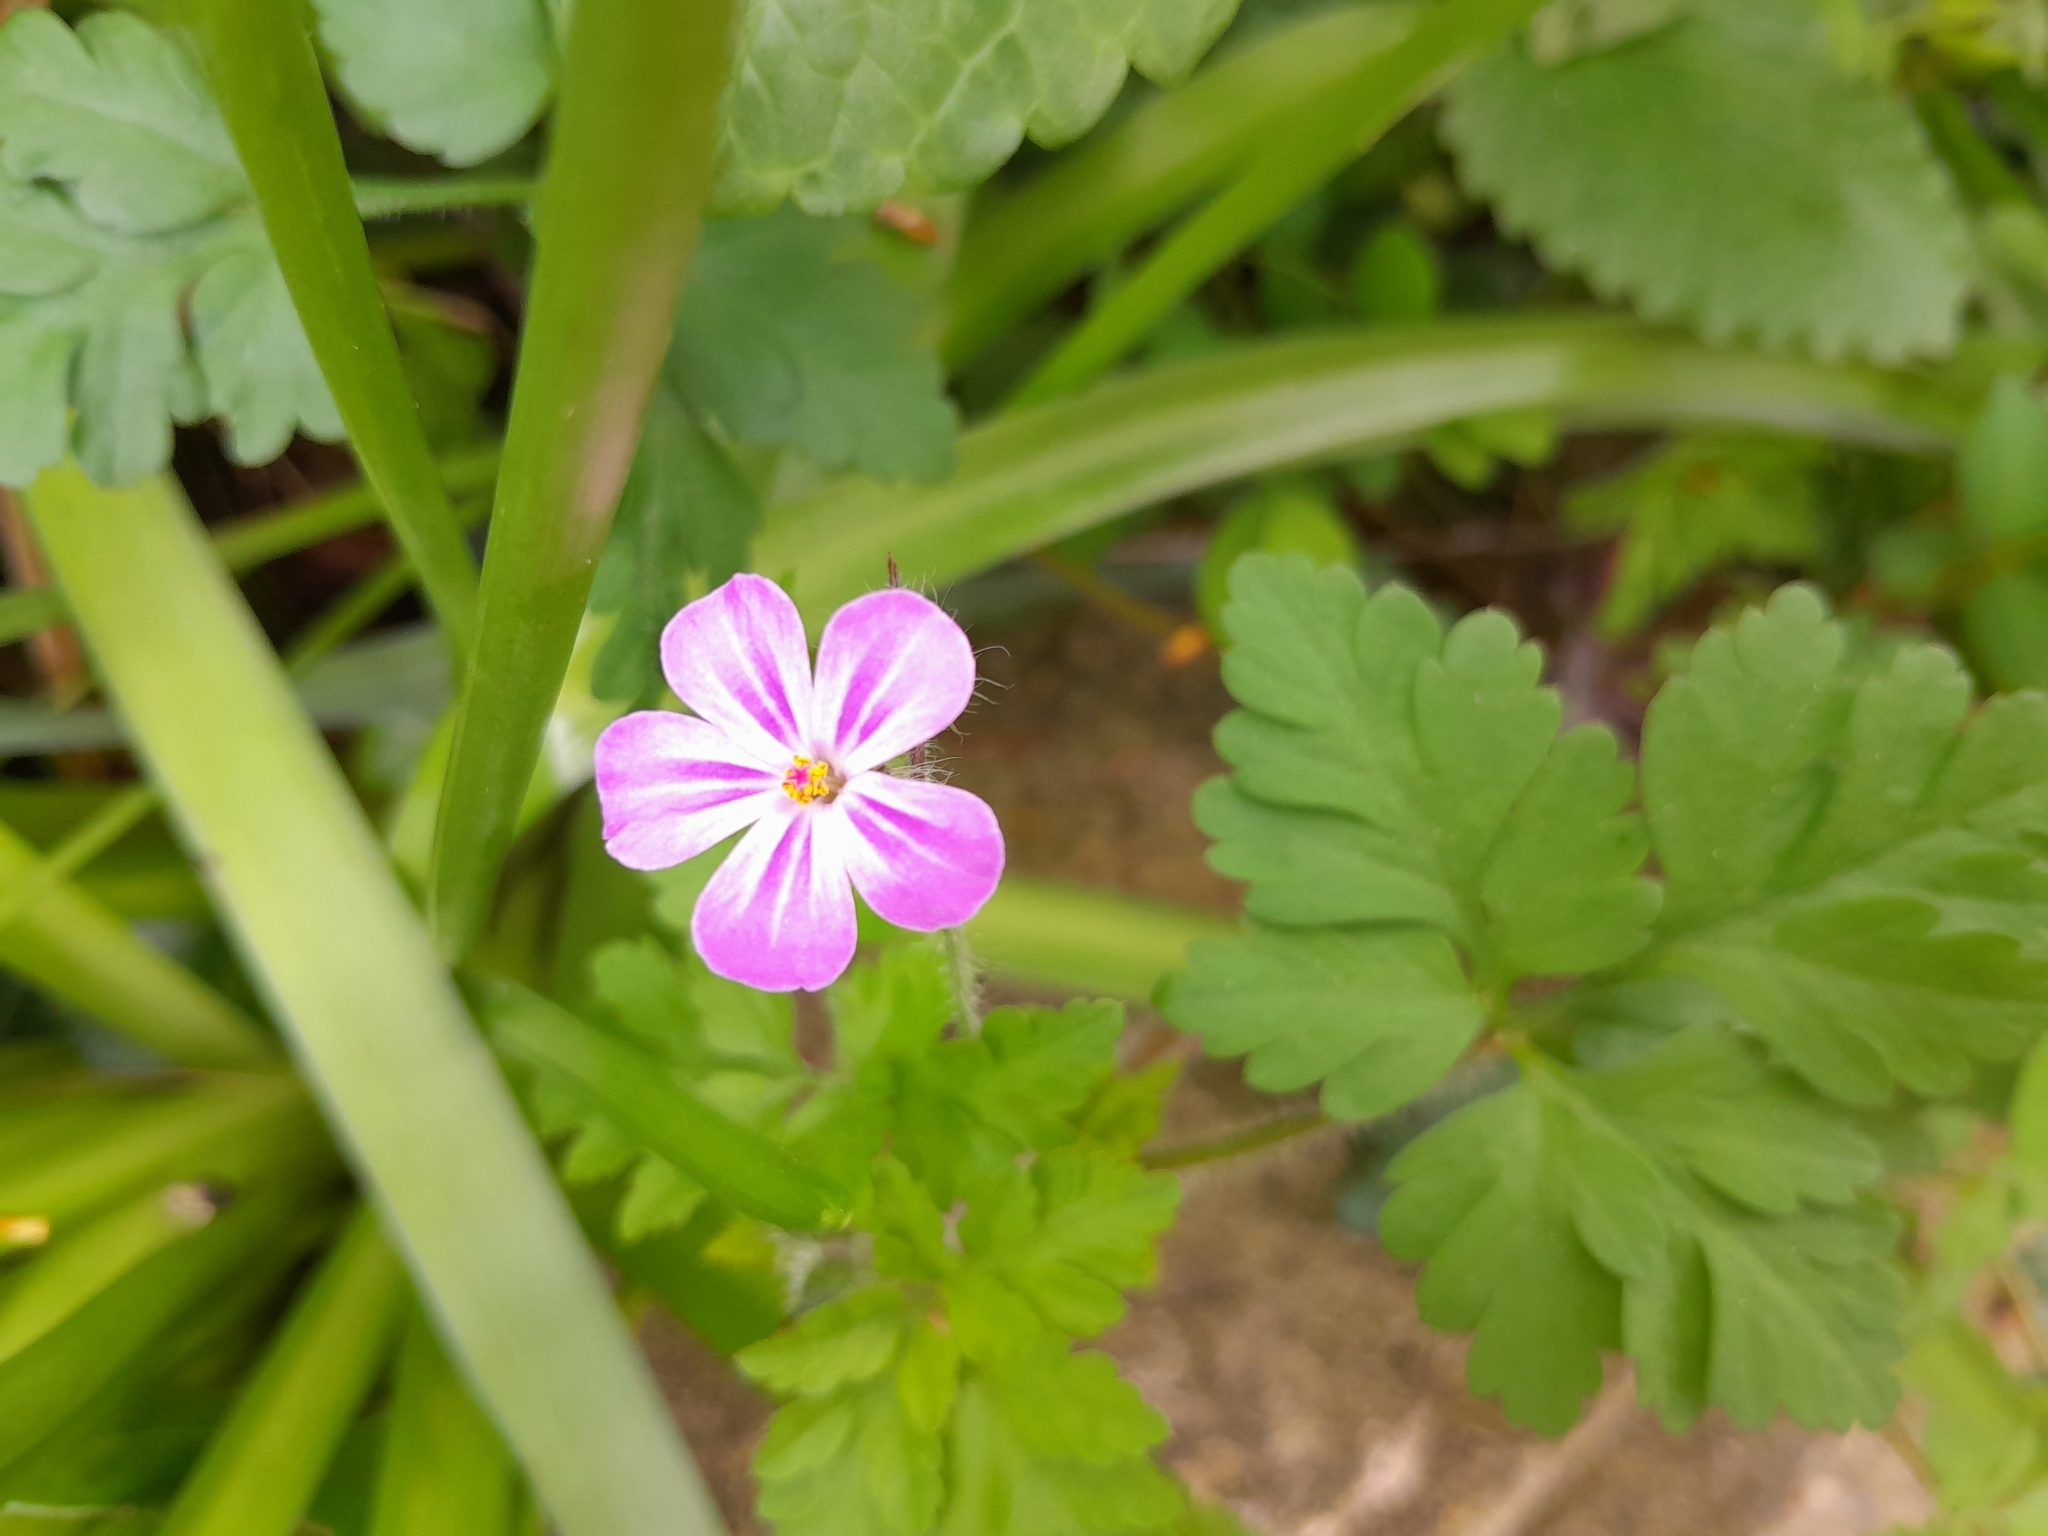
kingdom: Plantae
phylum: Tracheophyta
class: Magnoliopsida
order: Geraniales
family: Geraniaceae
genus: Geranium
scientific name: Geranium robertianum
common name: Herb-robert
